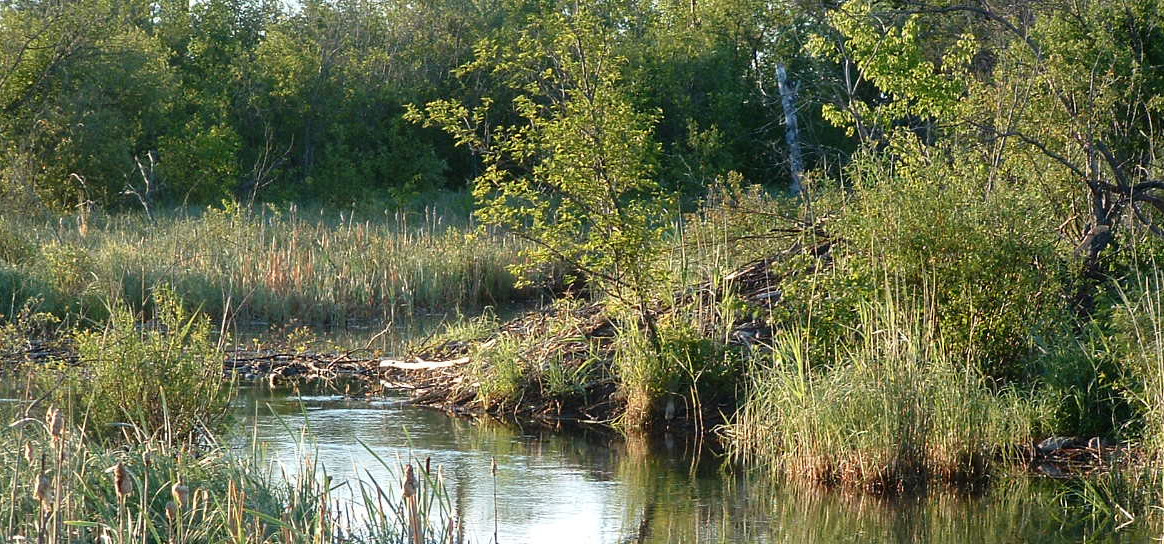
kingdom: Animalia
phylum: Chordata
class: Mammalia
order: Rodentia
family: Castoridae
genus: Castor
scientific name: Castor canadensis
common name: American beaver
